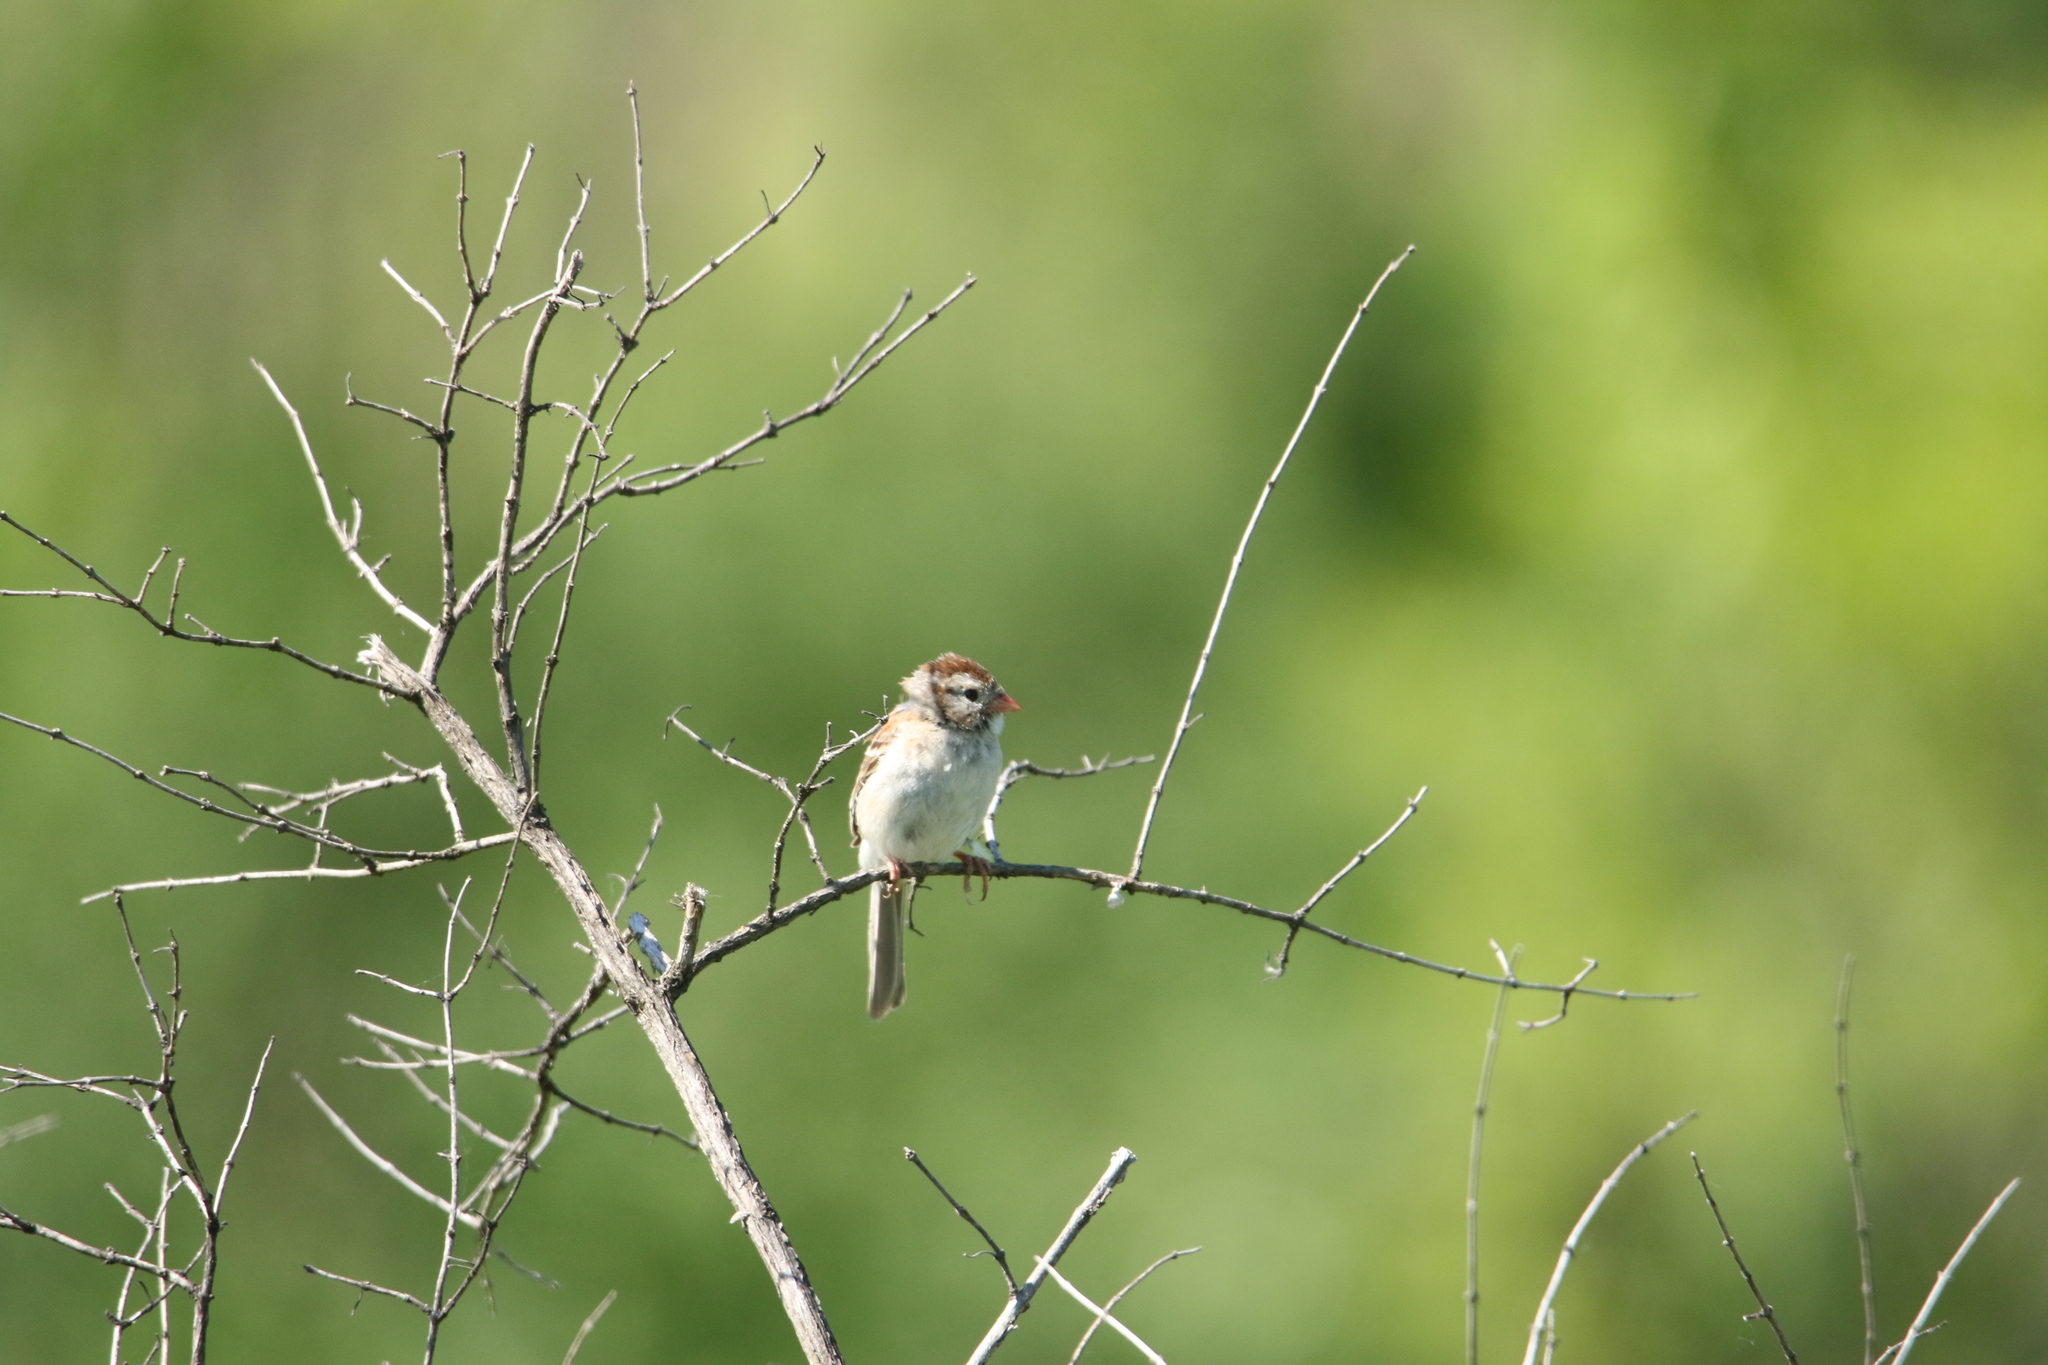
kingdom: Animalia
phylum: Chordata
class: Aves
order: Passeriformes
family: Passerellidae
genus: Spizella
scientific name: Spizella pusilla
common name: Field sparrow
